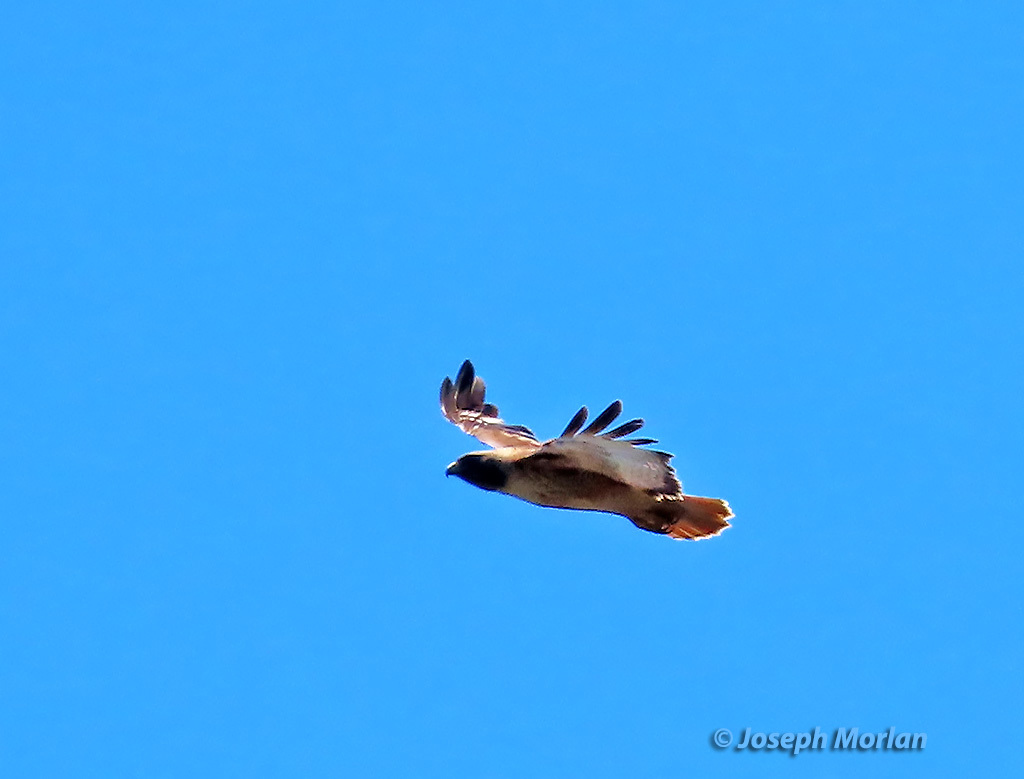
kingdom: Animalia
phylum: Chordata
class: Aves
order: Accipitriformes
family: Accipitridae
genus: Buteo
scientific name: Buteo jamaicensis
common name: Red-tailed hawk
